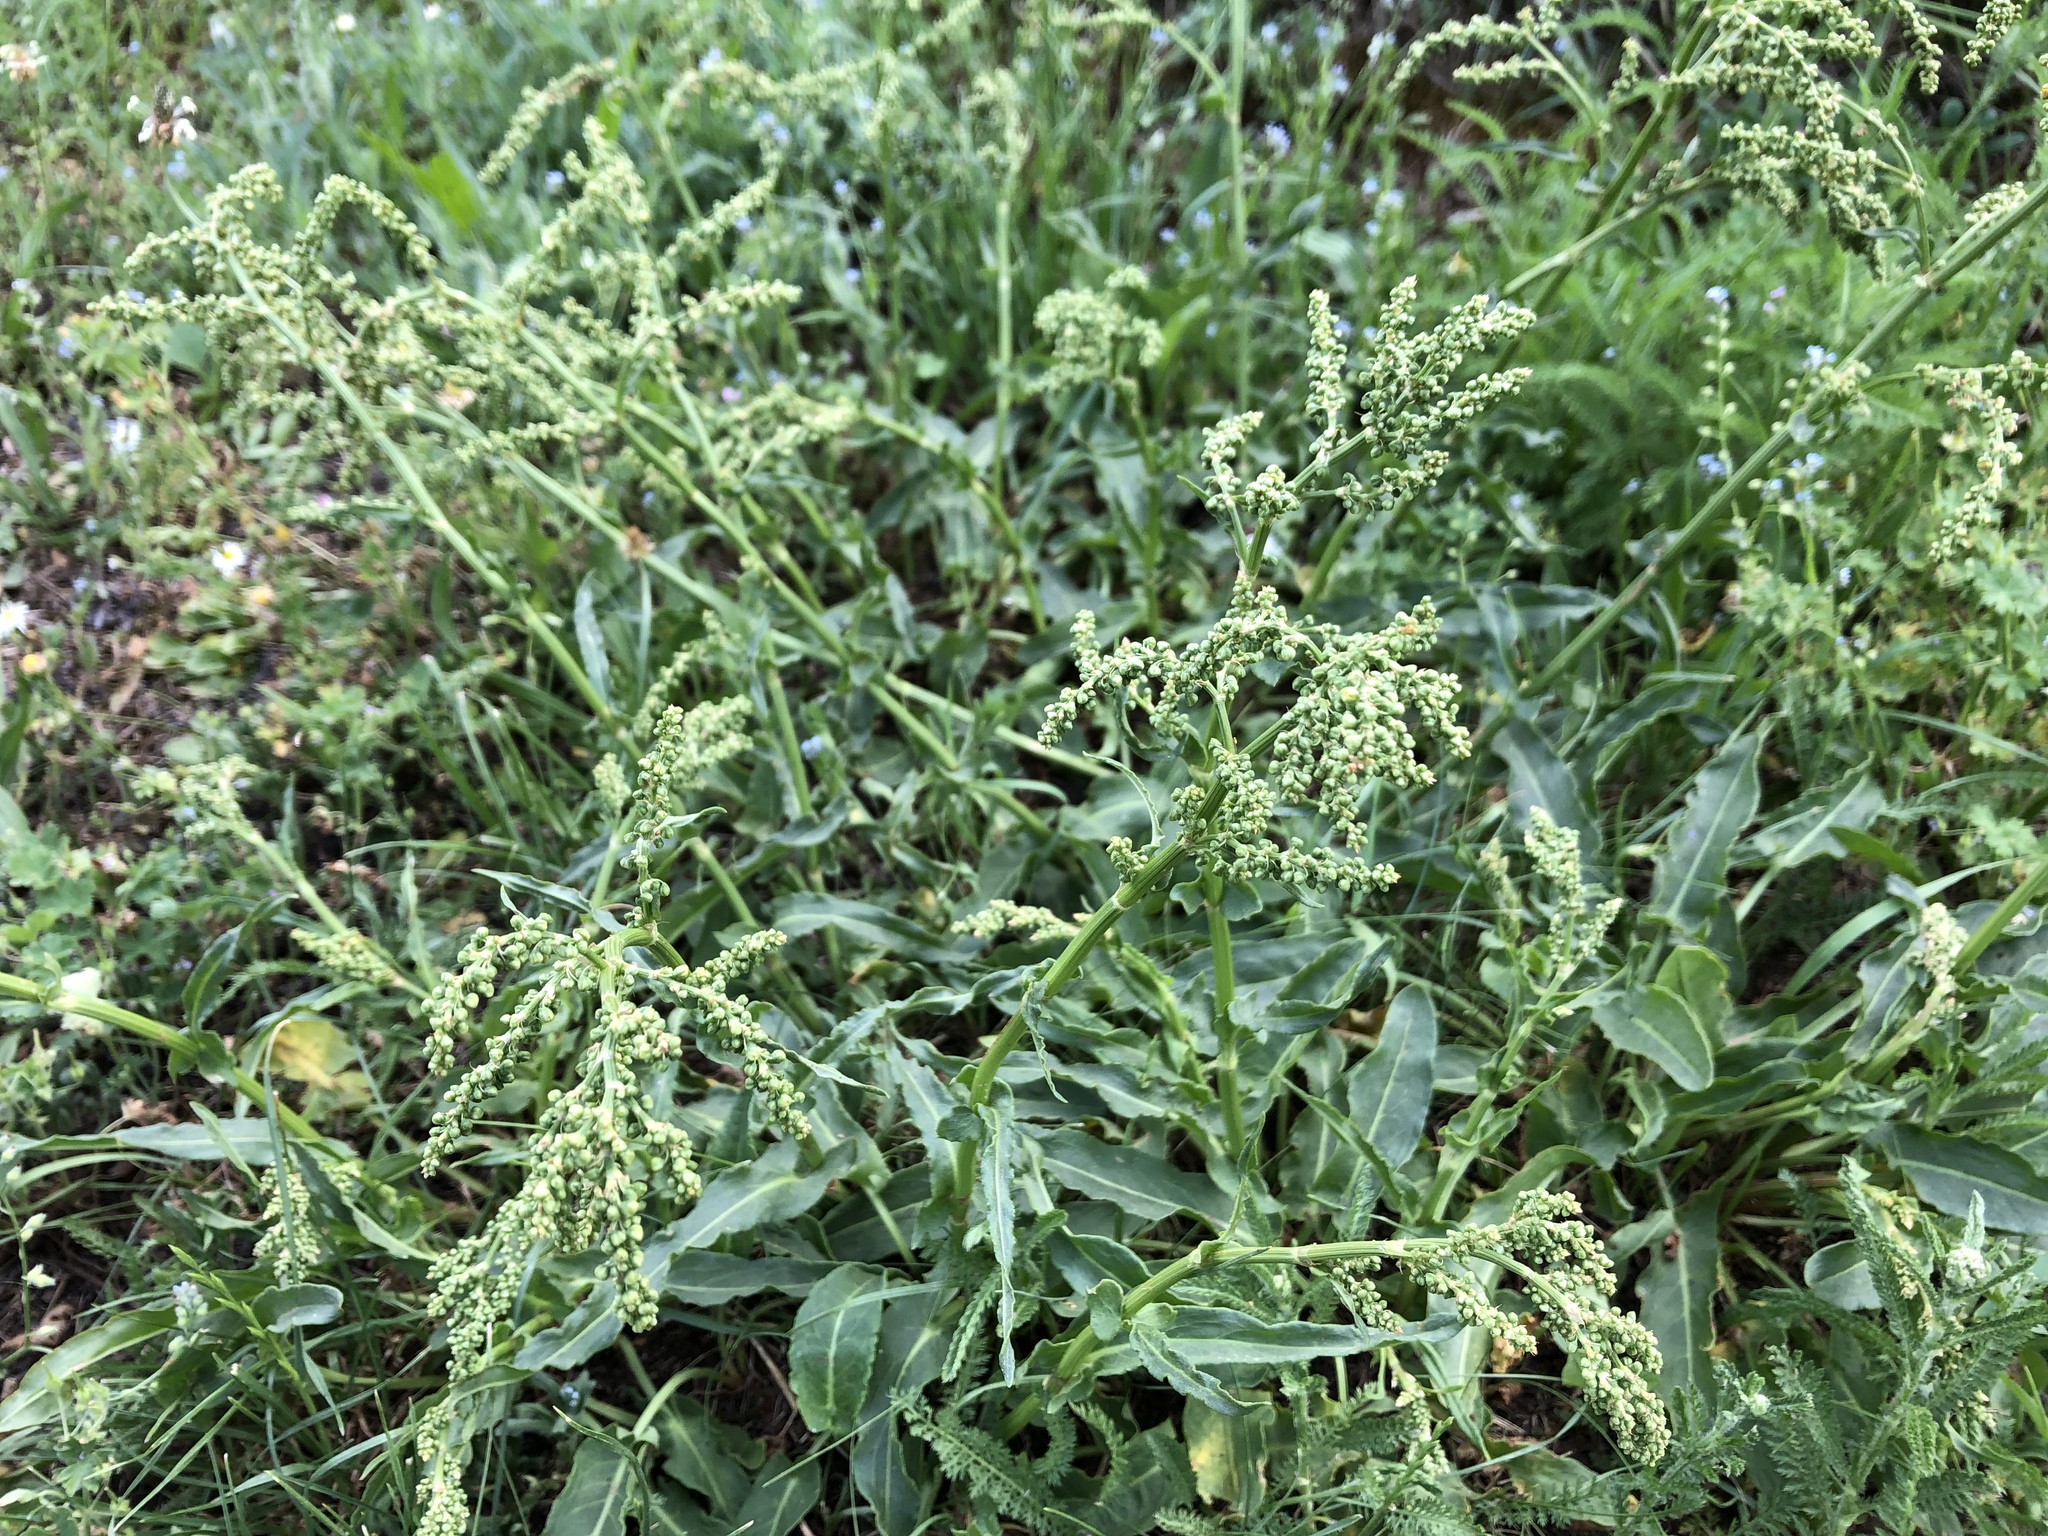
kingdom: Plantae
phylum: Tracheophyta
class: Magnoliopsida
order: Caryophyllales
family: Polygonaceae
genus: Rumex
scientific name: Rumex thyrsiflorus
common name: Garden sorrel
